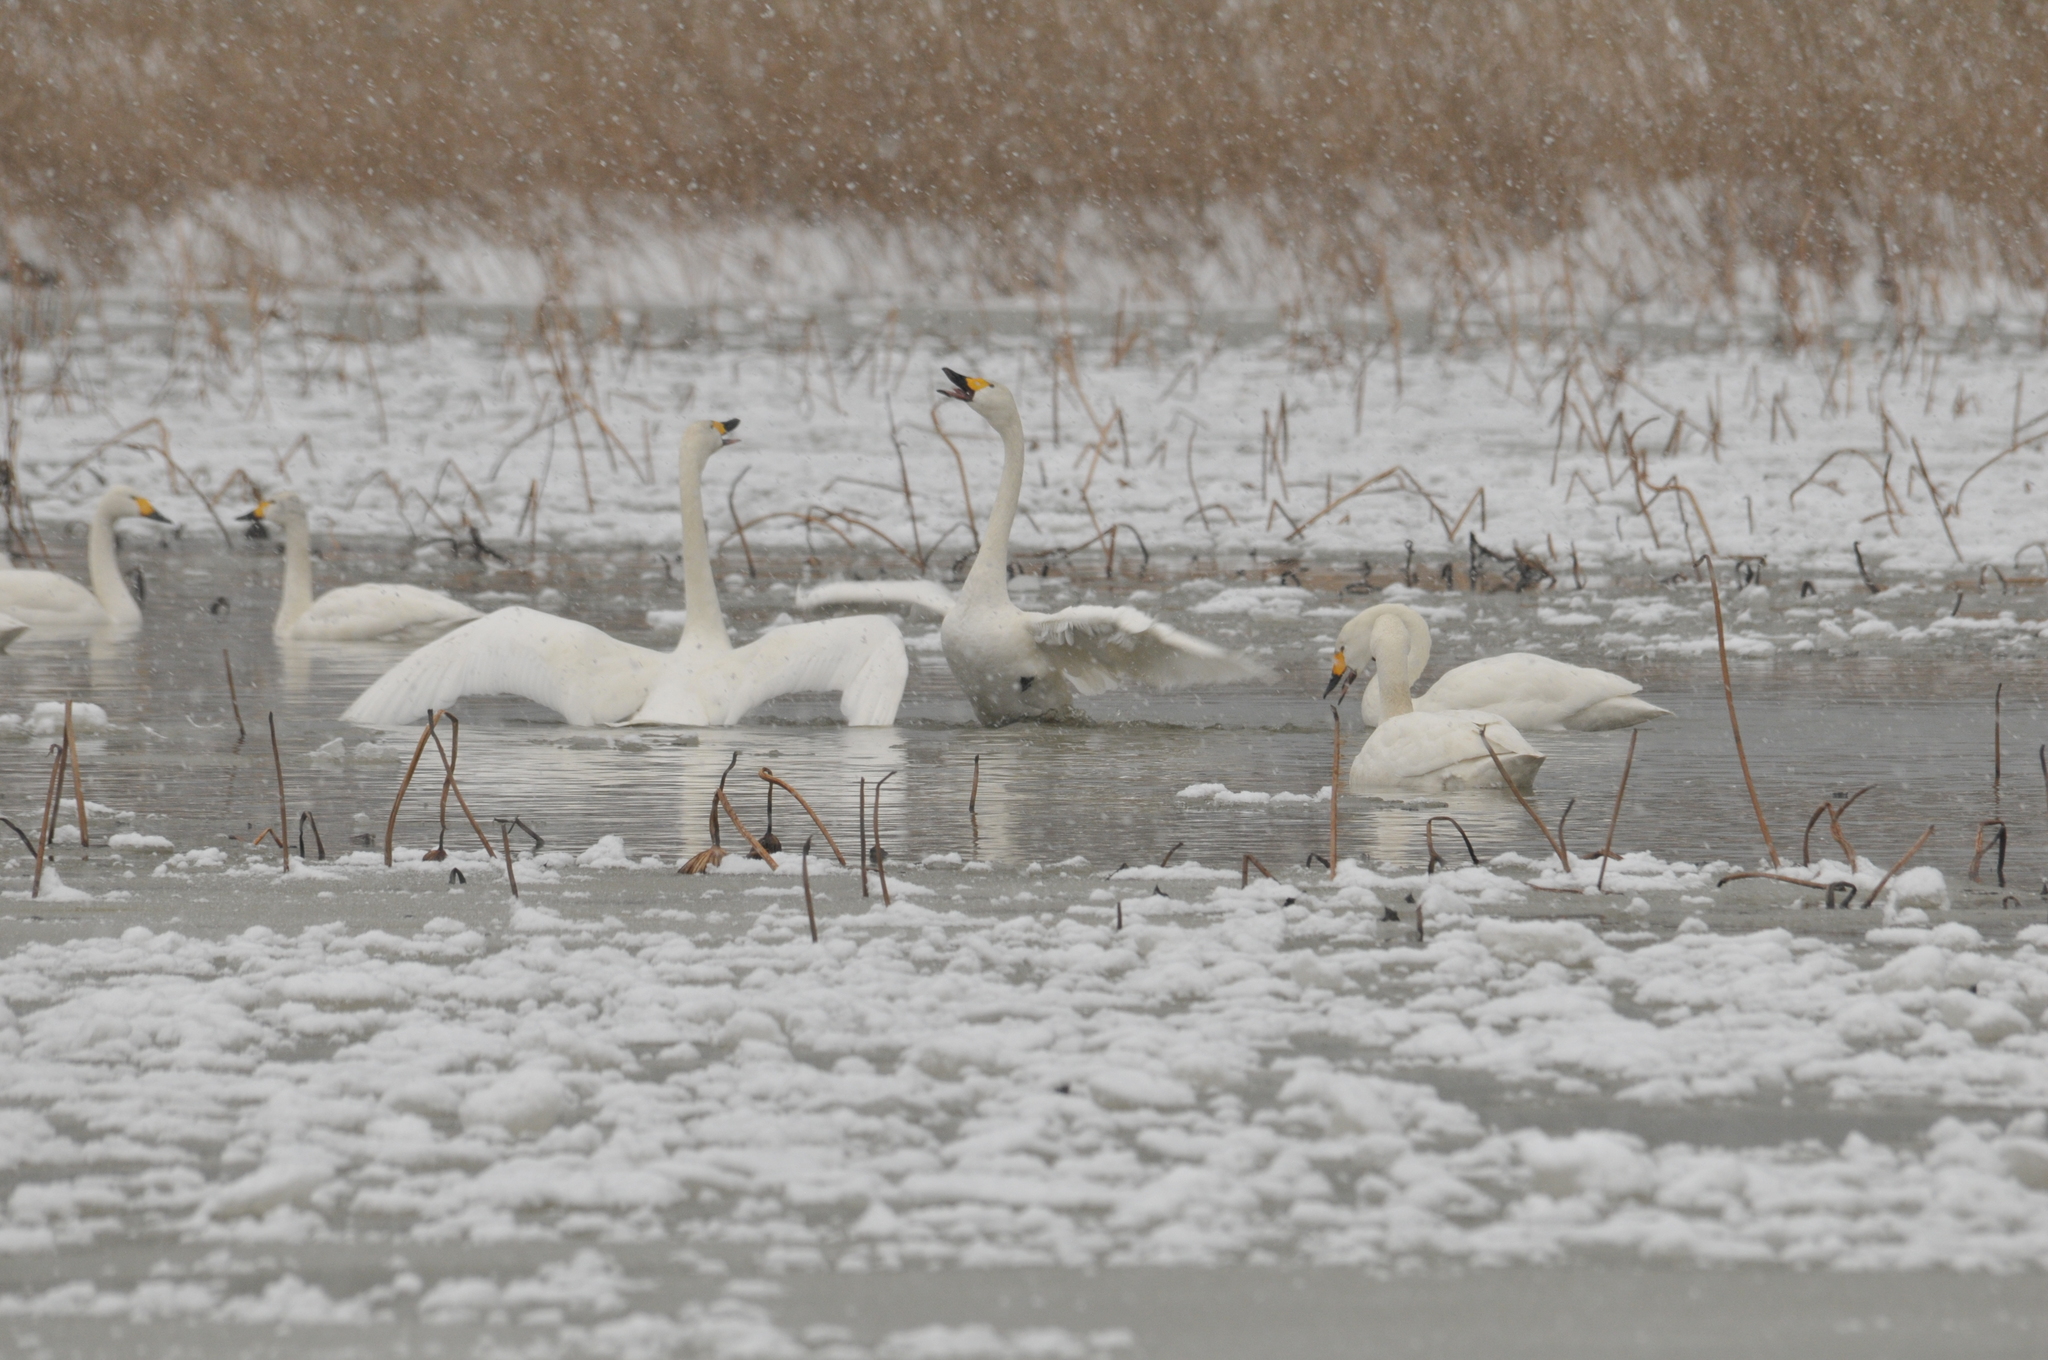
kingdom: Animalia
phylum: Chordata
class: Aves
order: Anseriformes
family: Anatidae
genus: Cygnus
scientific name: Cygnus columbianus
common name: Tundra swan
